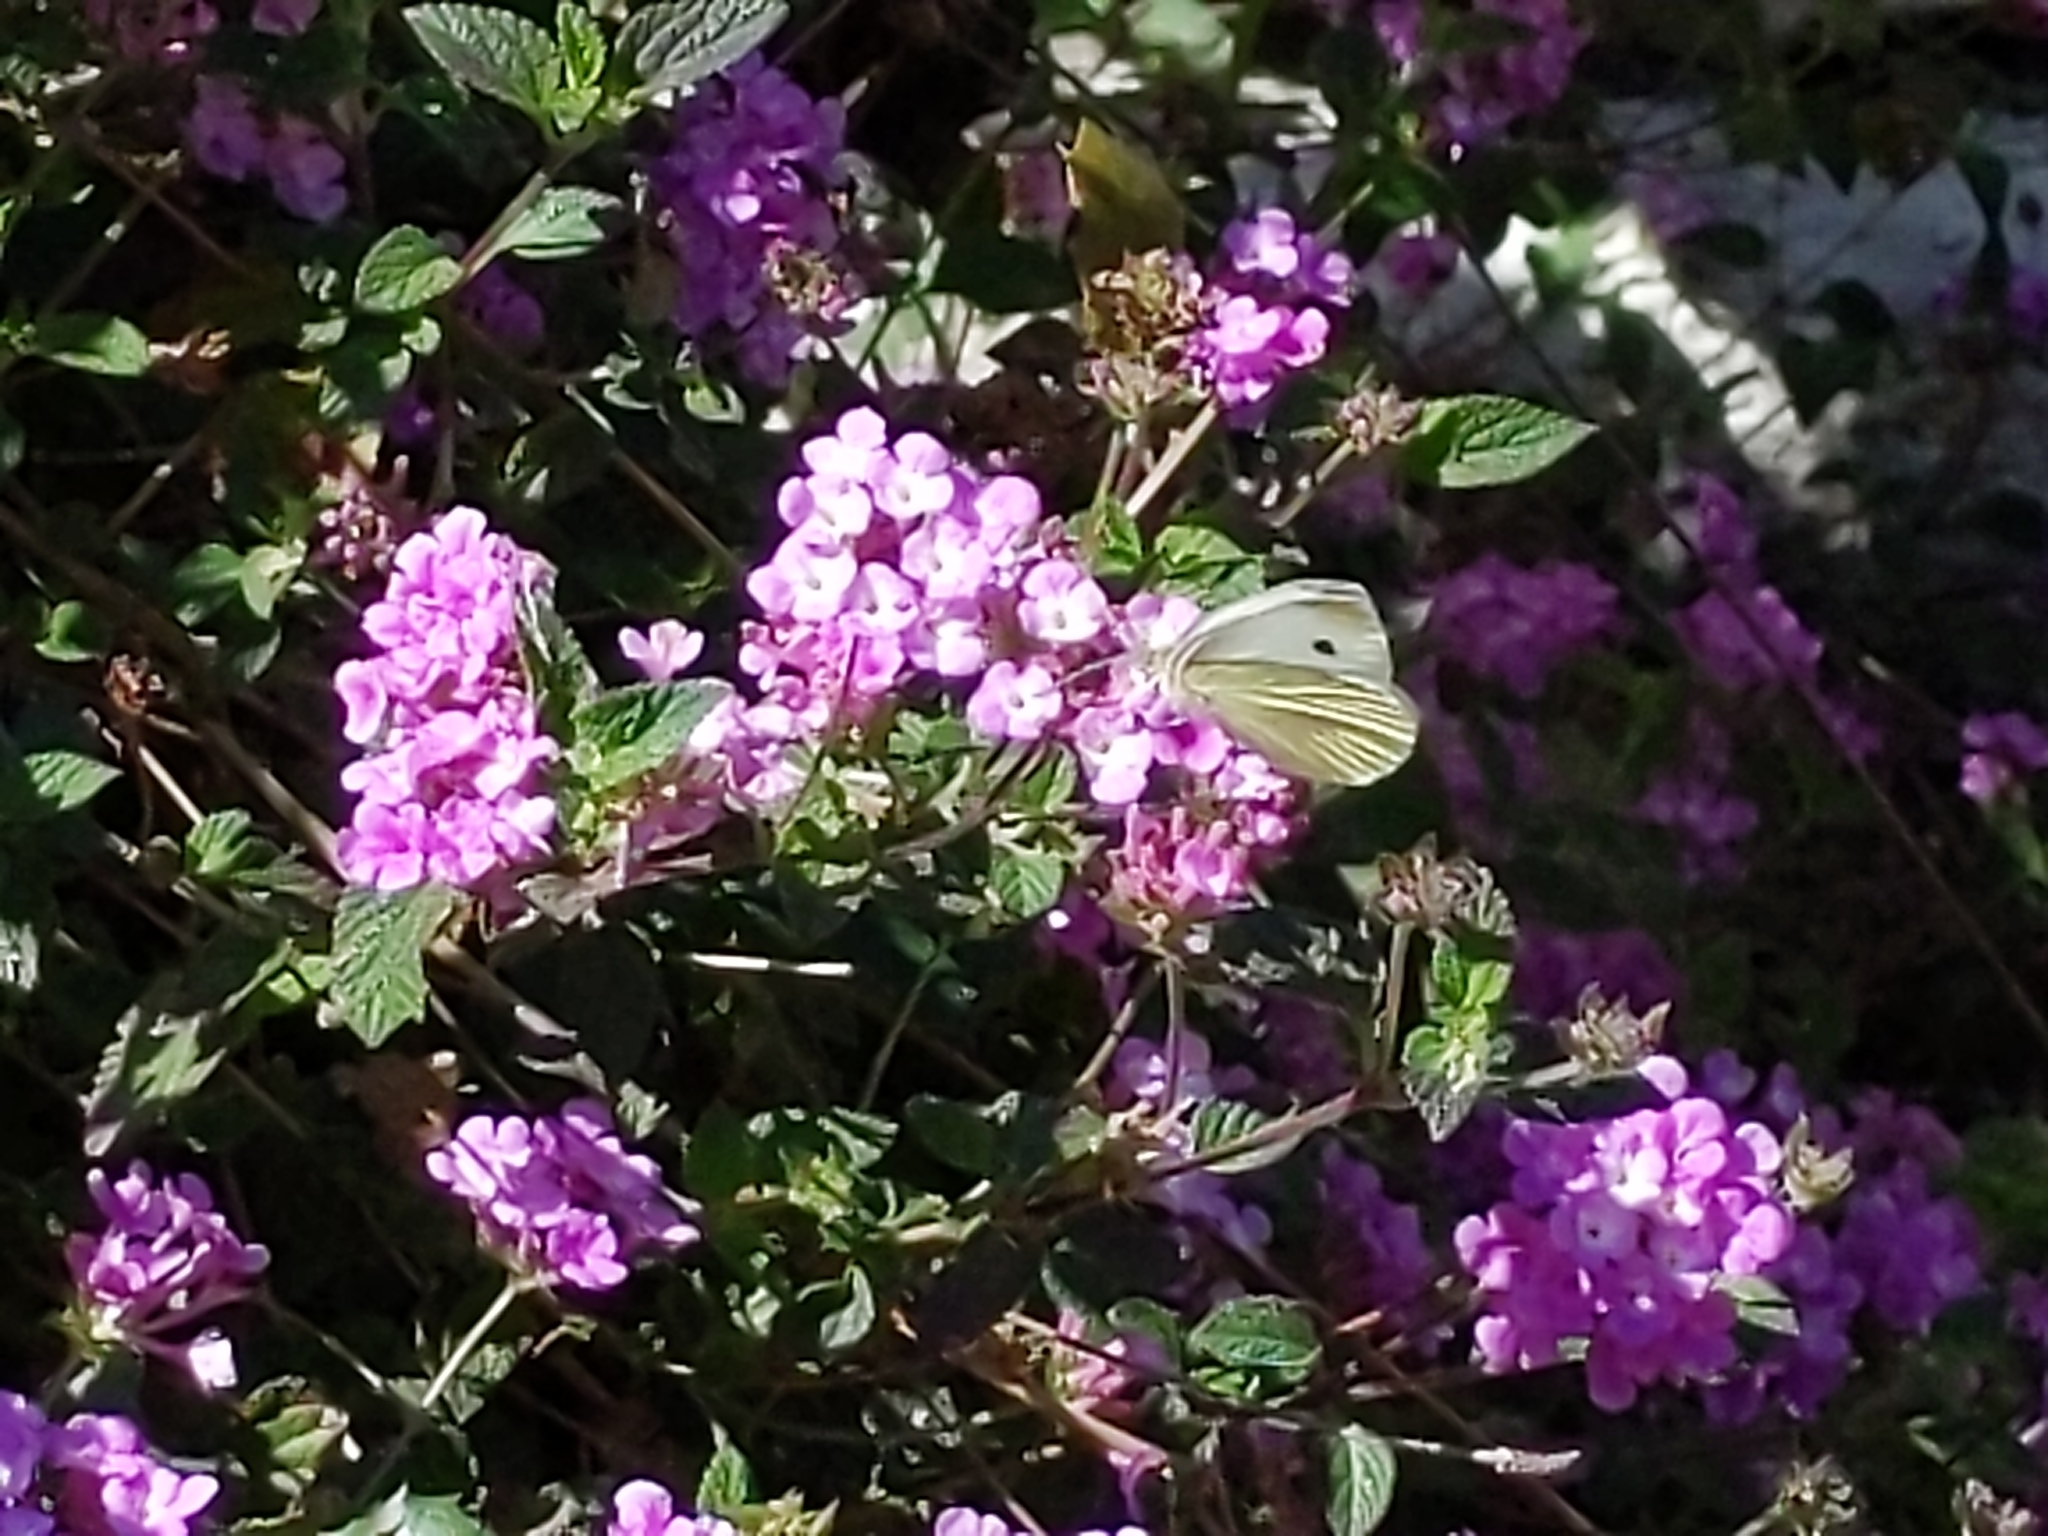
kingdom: Animalia
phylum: Arthropoda
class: Insecta
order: Lepidoptera
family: Pieridae
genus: Pieris
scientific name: Pieris rapae
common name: Small white
